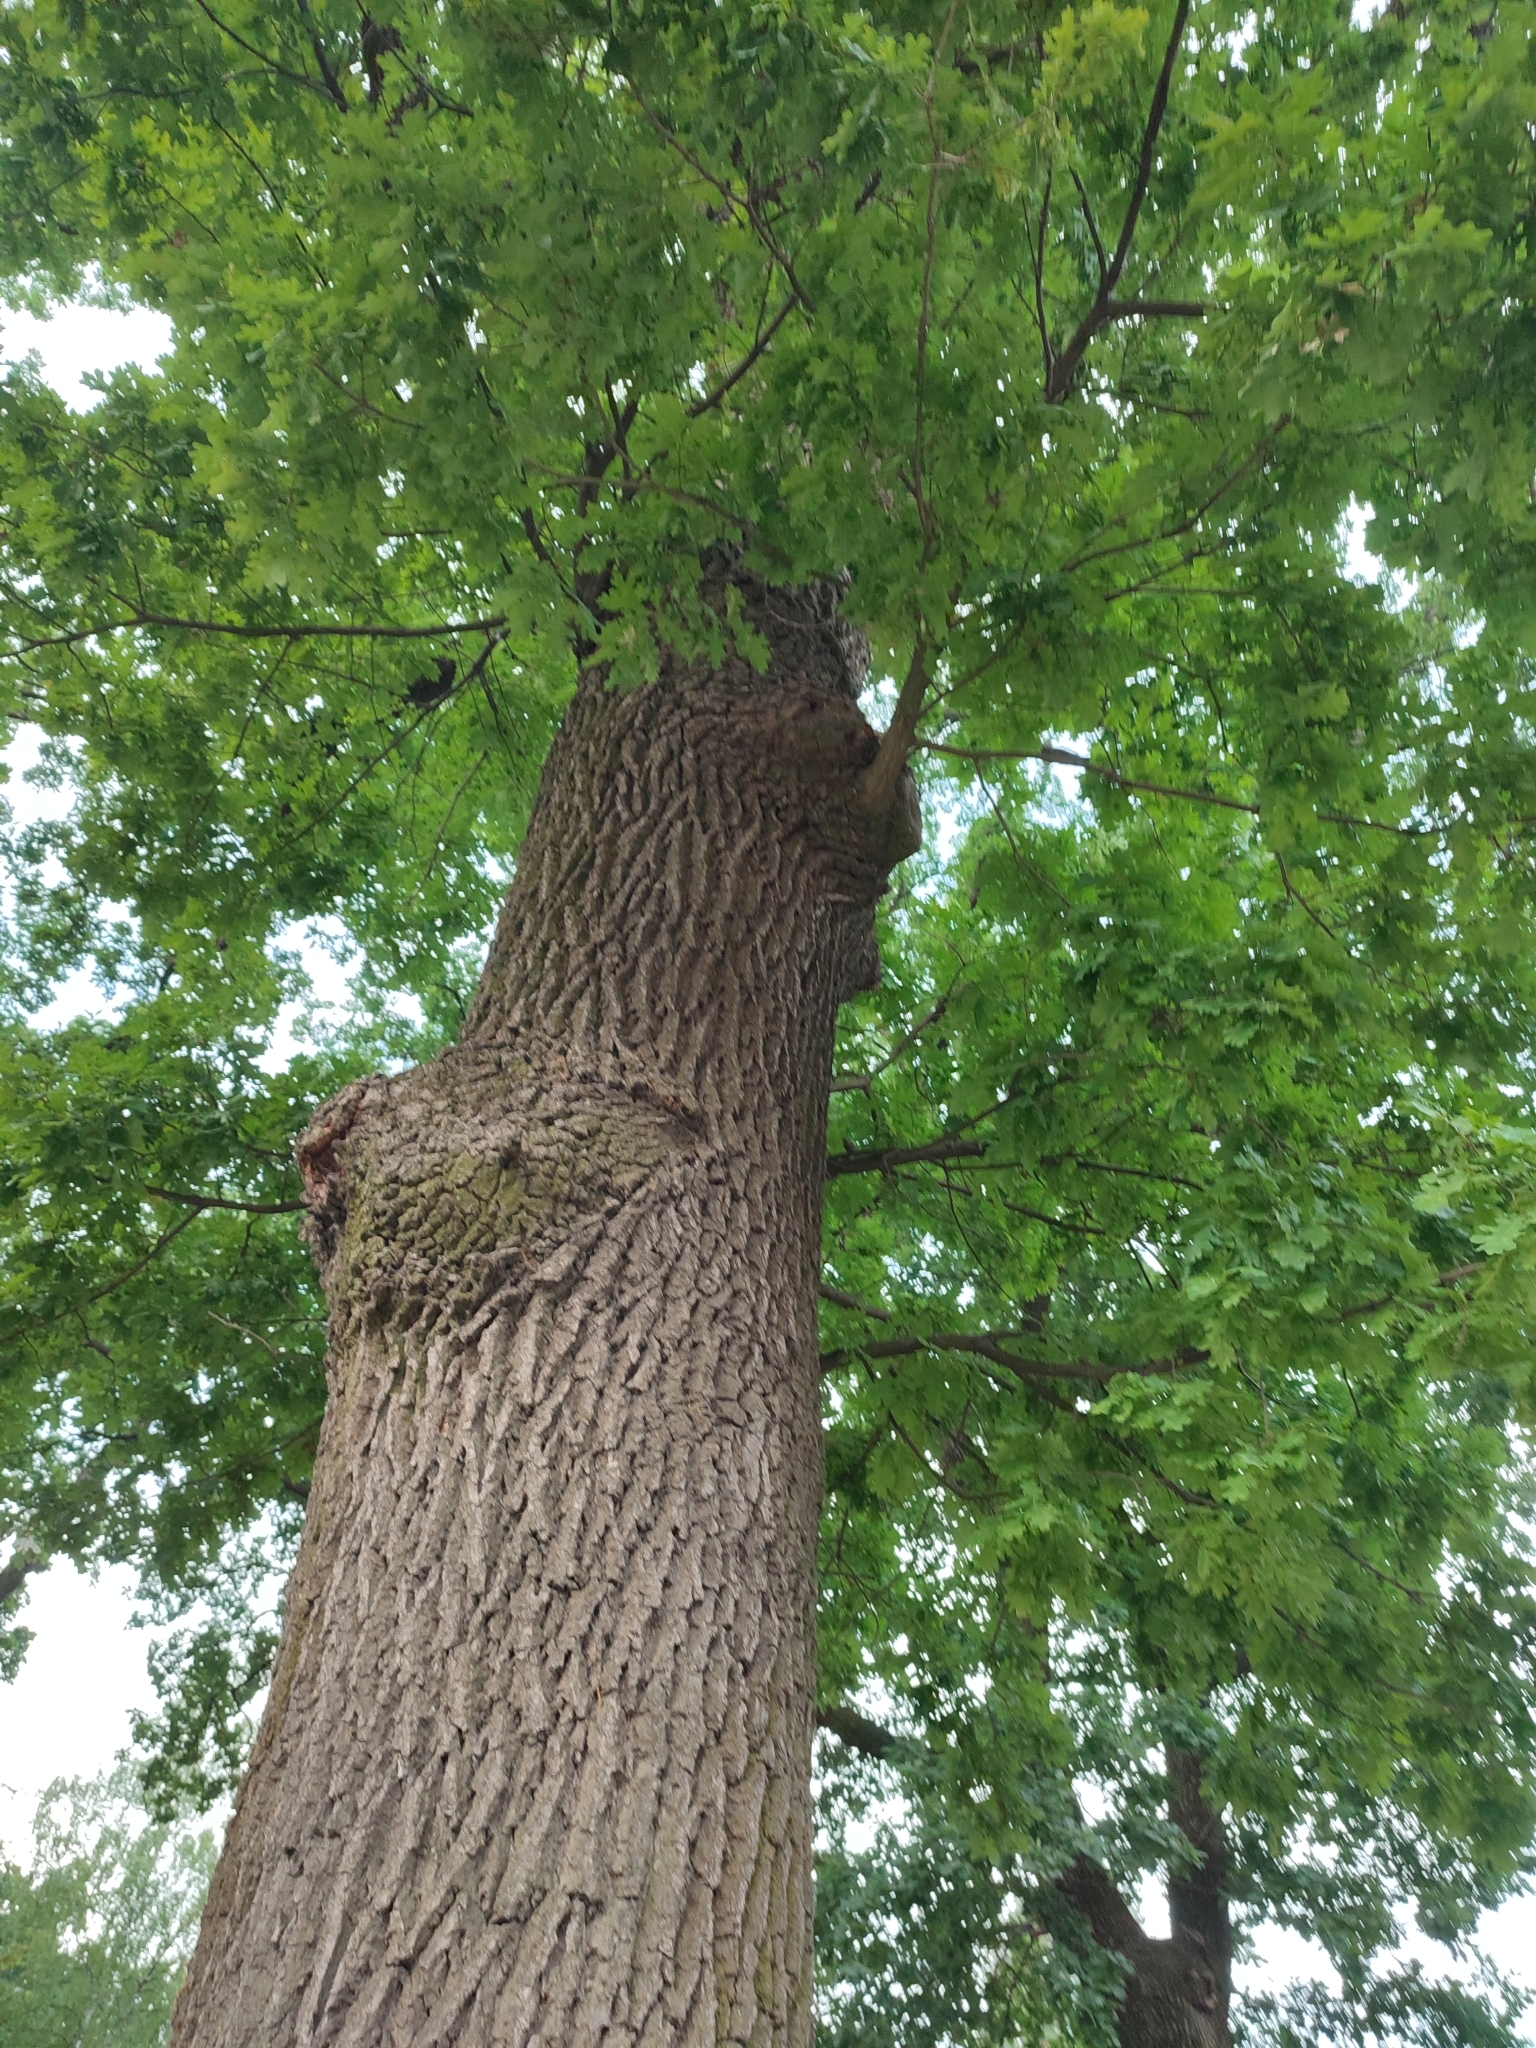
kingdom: Plantae
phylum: Tracheophyta
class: Magnoliopsida
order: Fagales
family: Fagaceae
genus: Quercus
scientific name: Quercus robur
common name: Pedunculate oak
